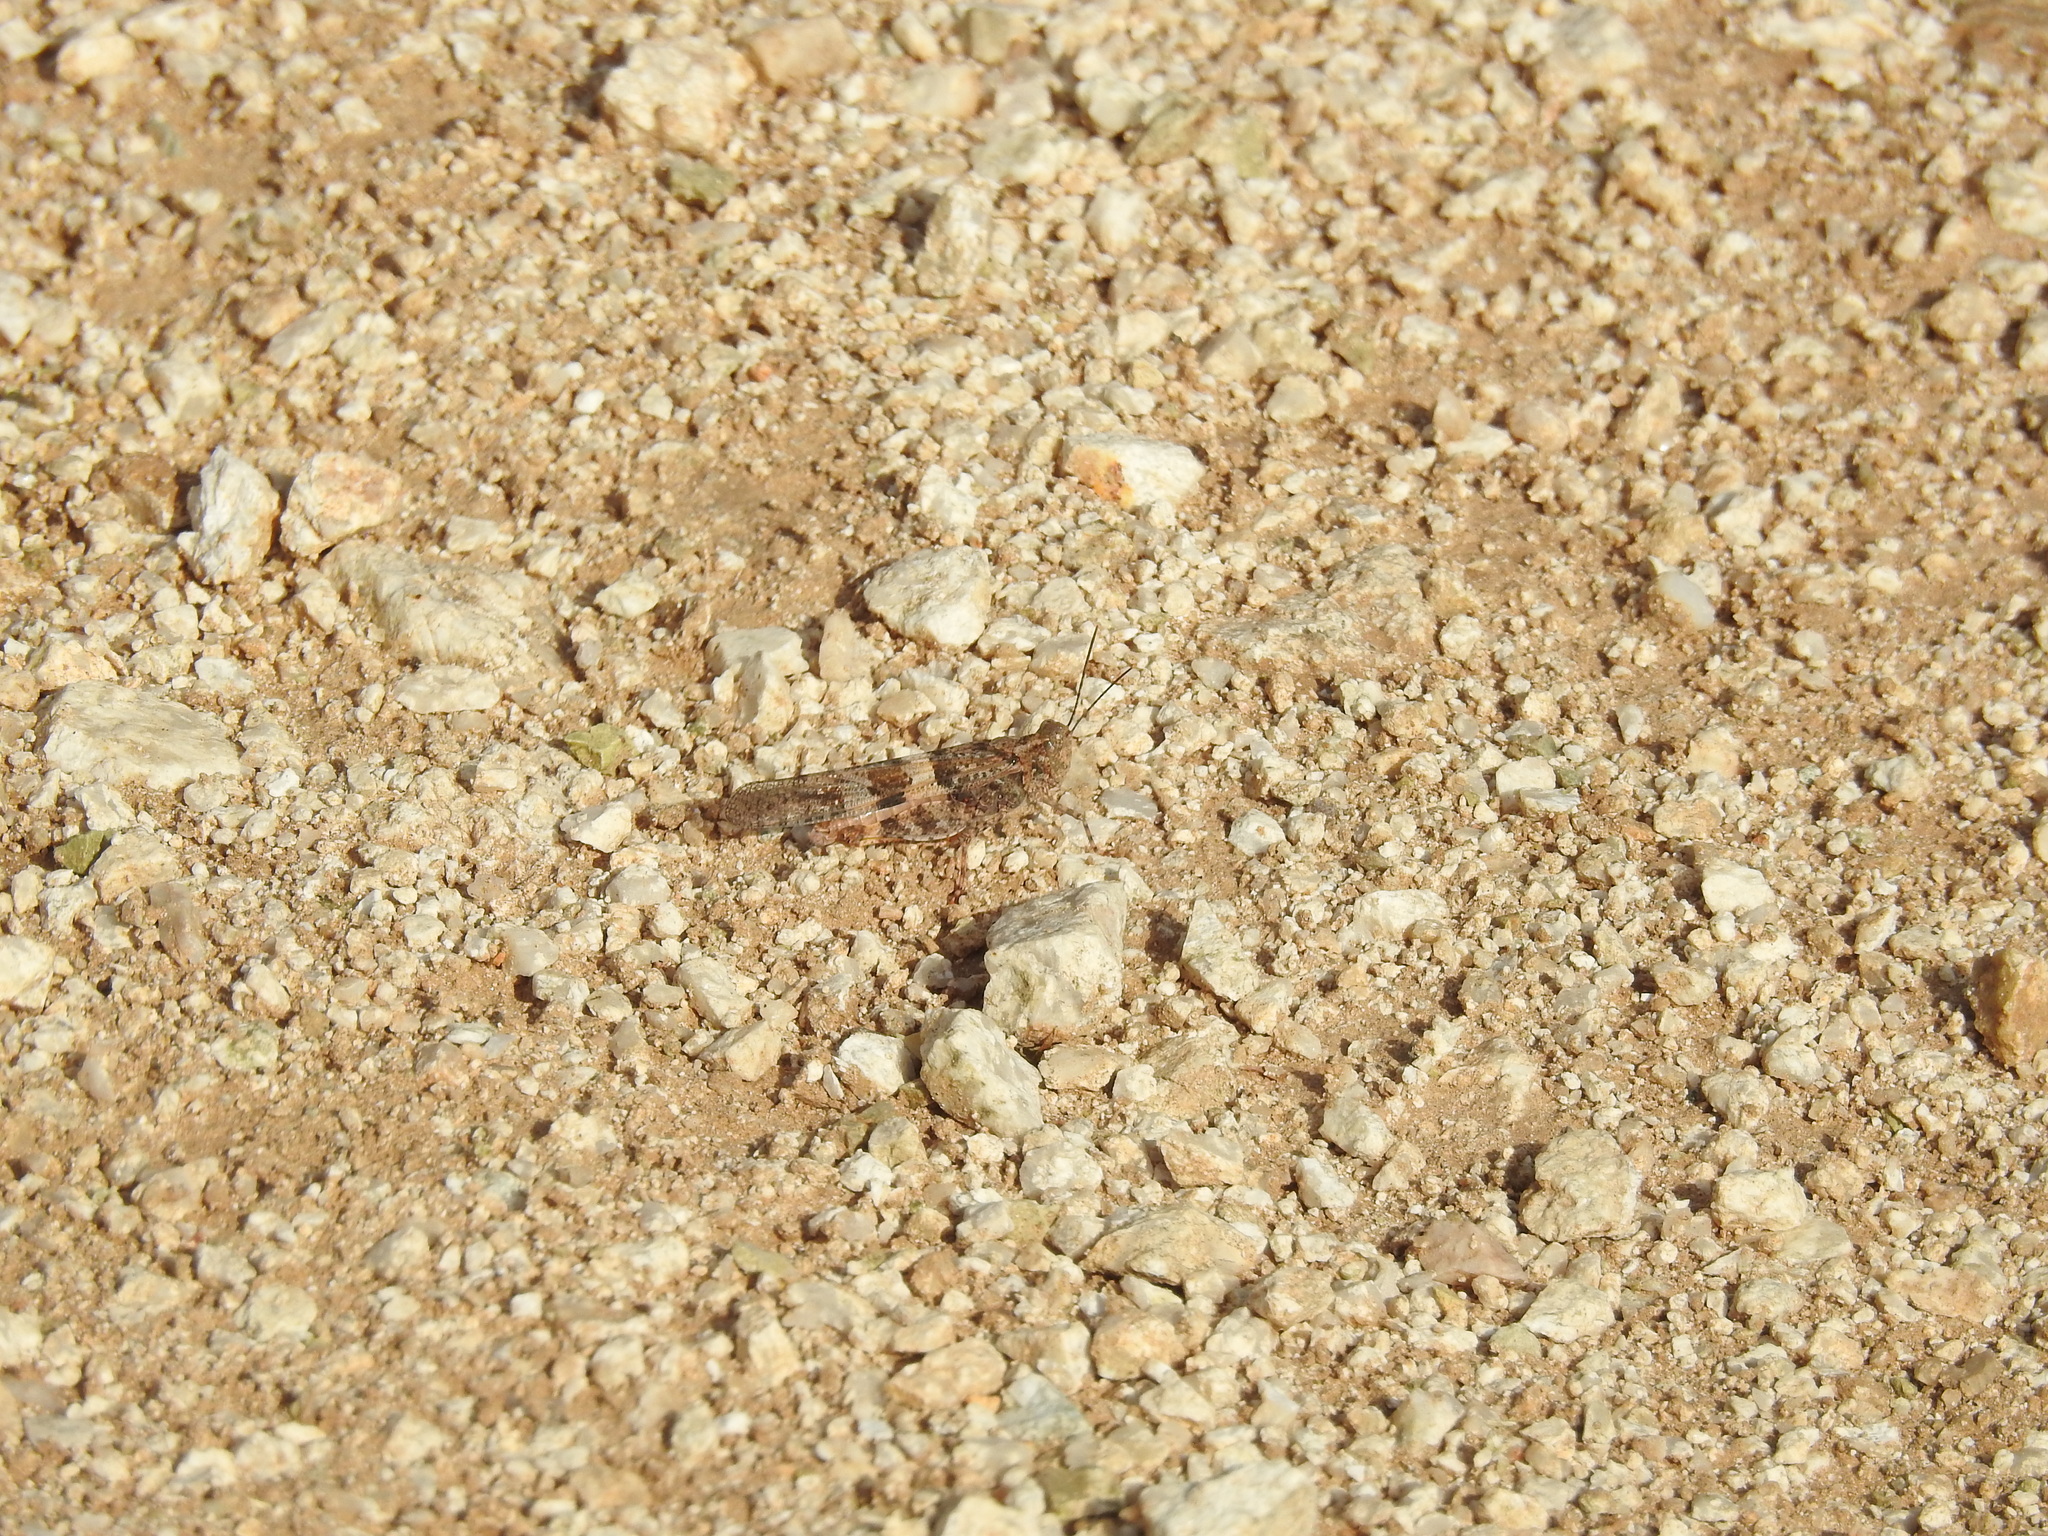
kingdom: Animalia
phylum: Arthropoda
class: Insecta
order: Orthoptera
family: Acrididae
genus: Trimerotropis
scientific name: Trimerotropis pallidipennis
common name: Pallid-winged grasshopper
